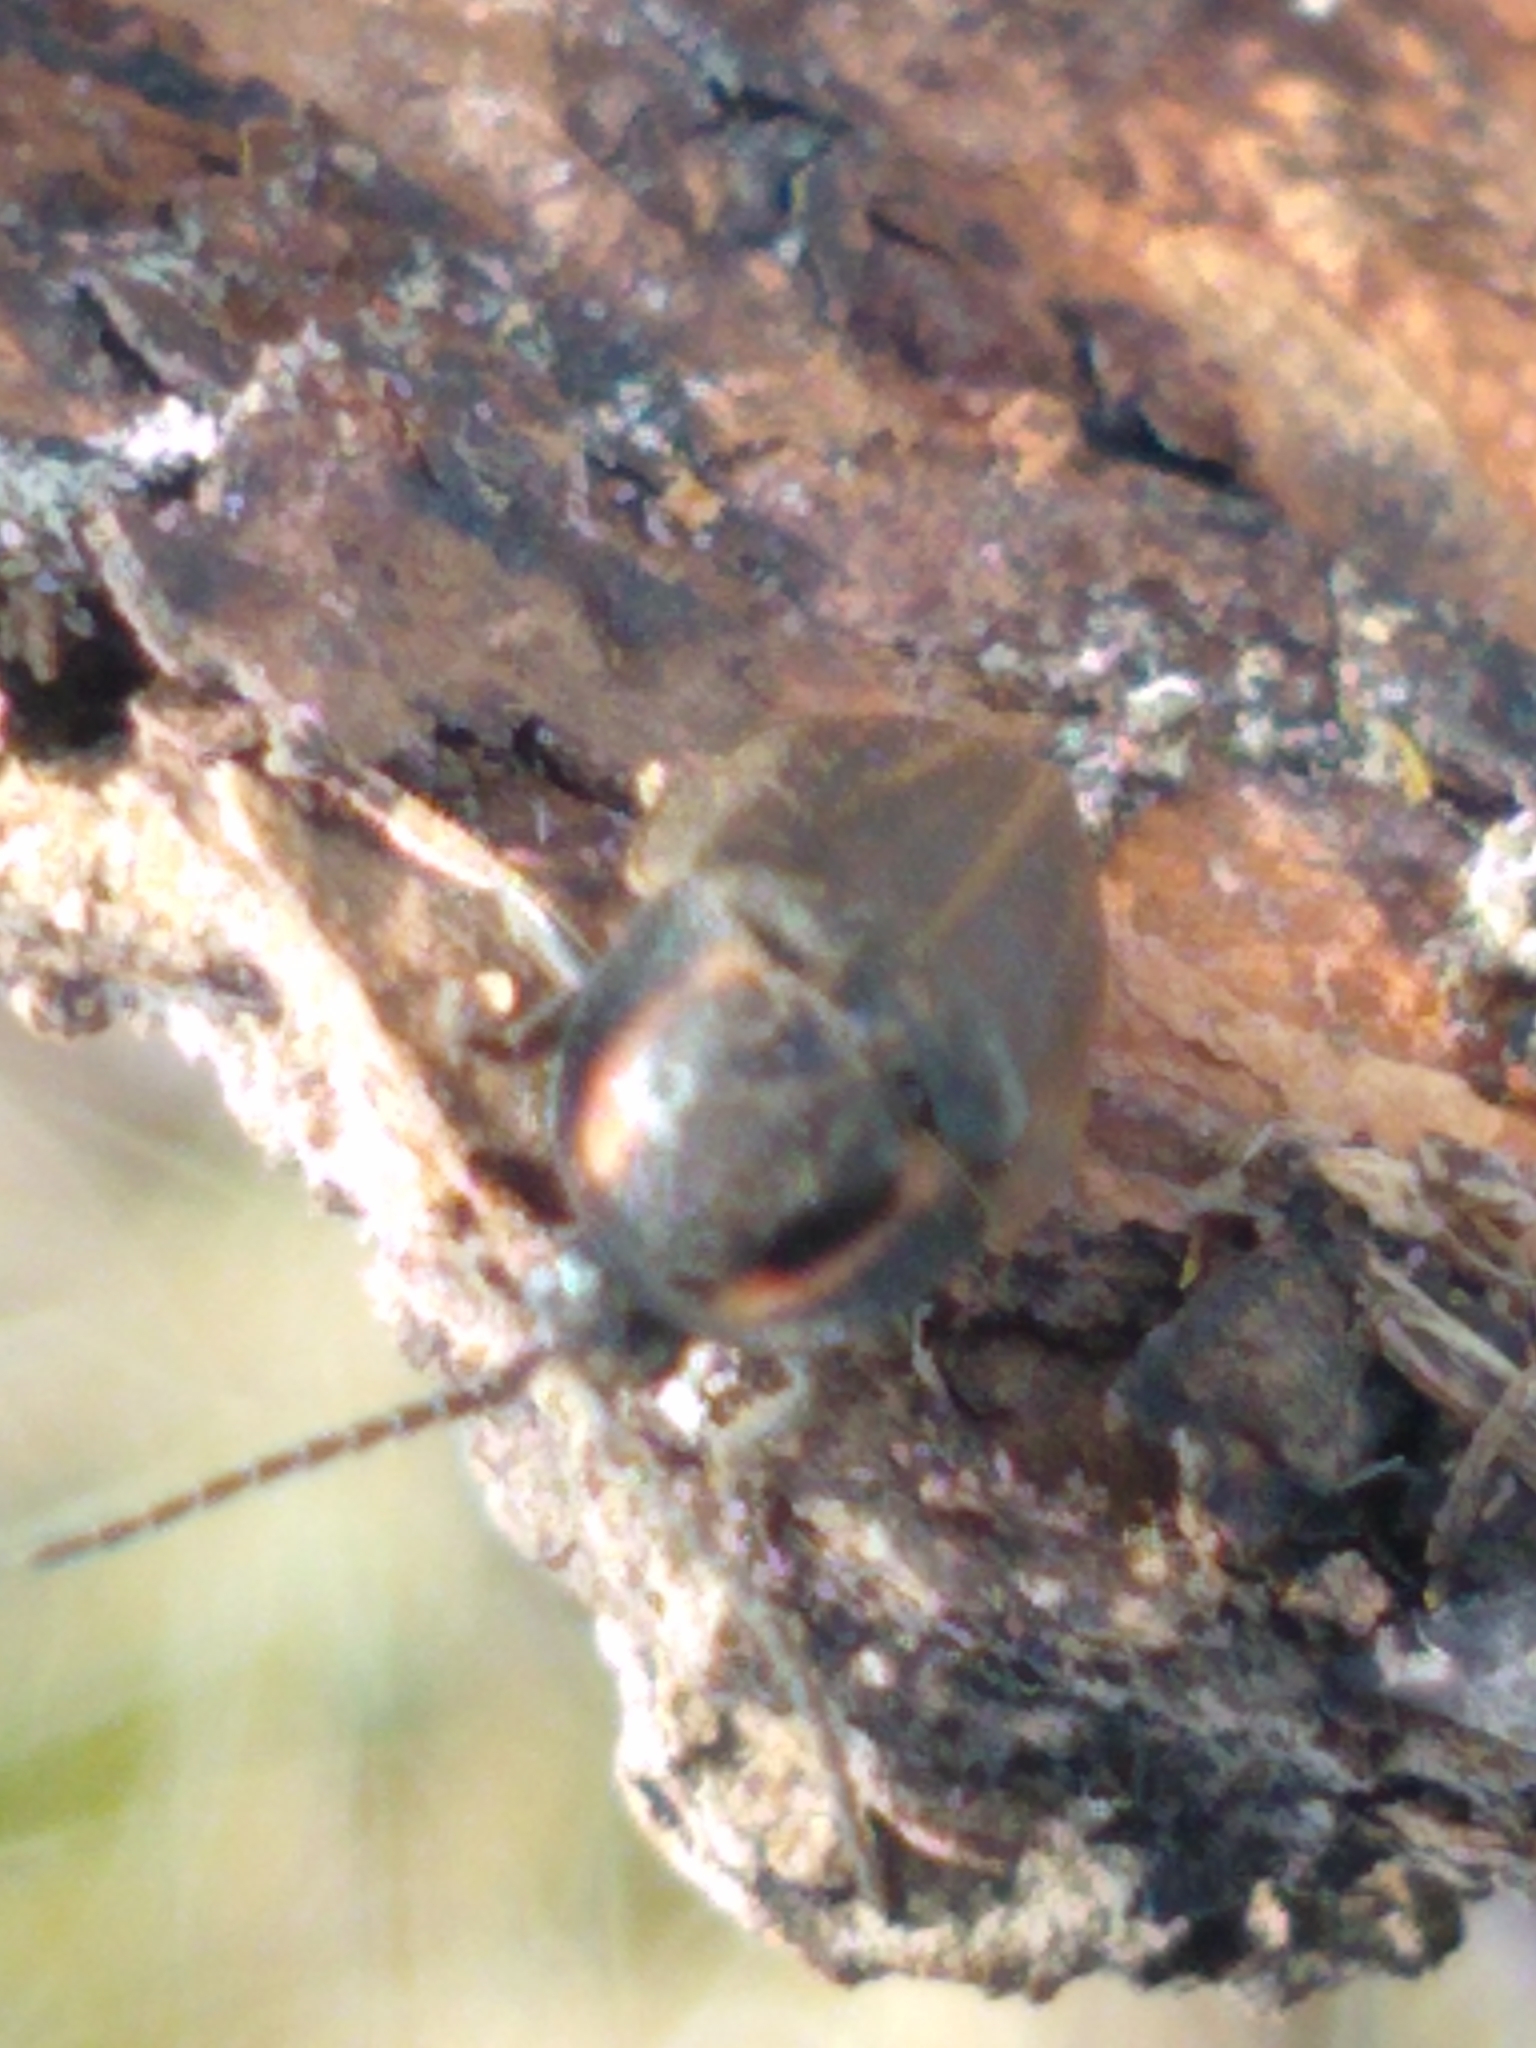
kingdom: Animalia
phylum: Arthropoda
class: Insecta
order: Coleoptera
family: Lampyridae
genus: Photinus
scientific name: Photinus corrusca
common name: Winter firefly
